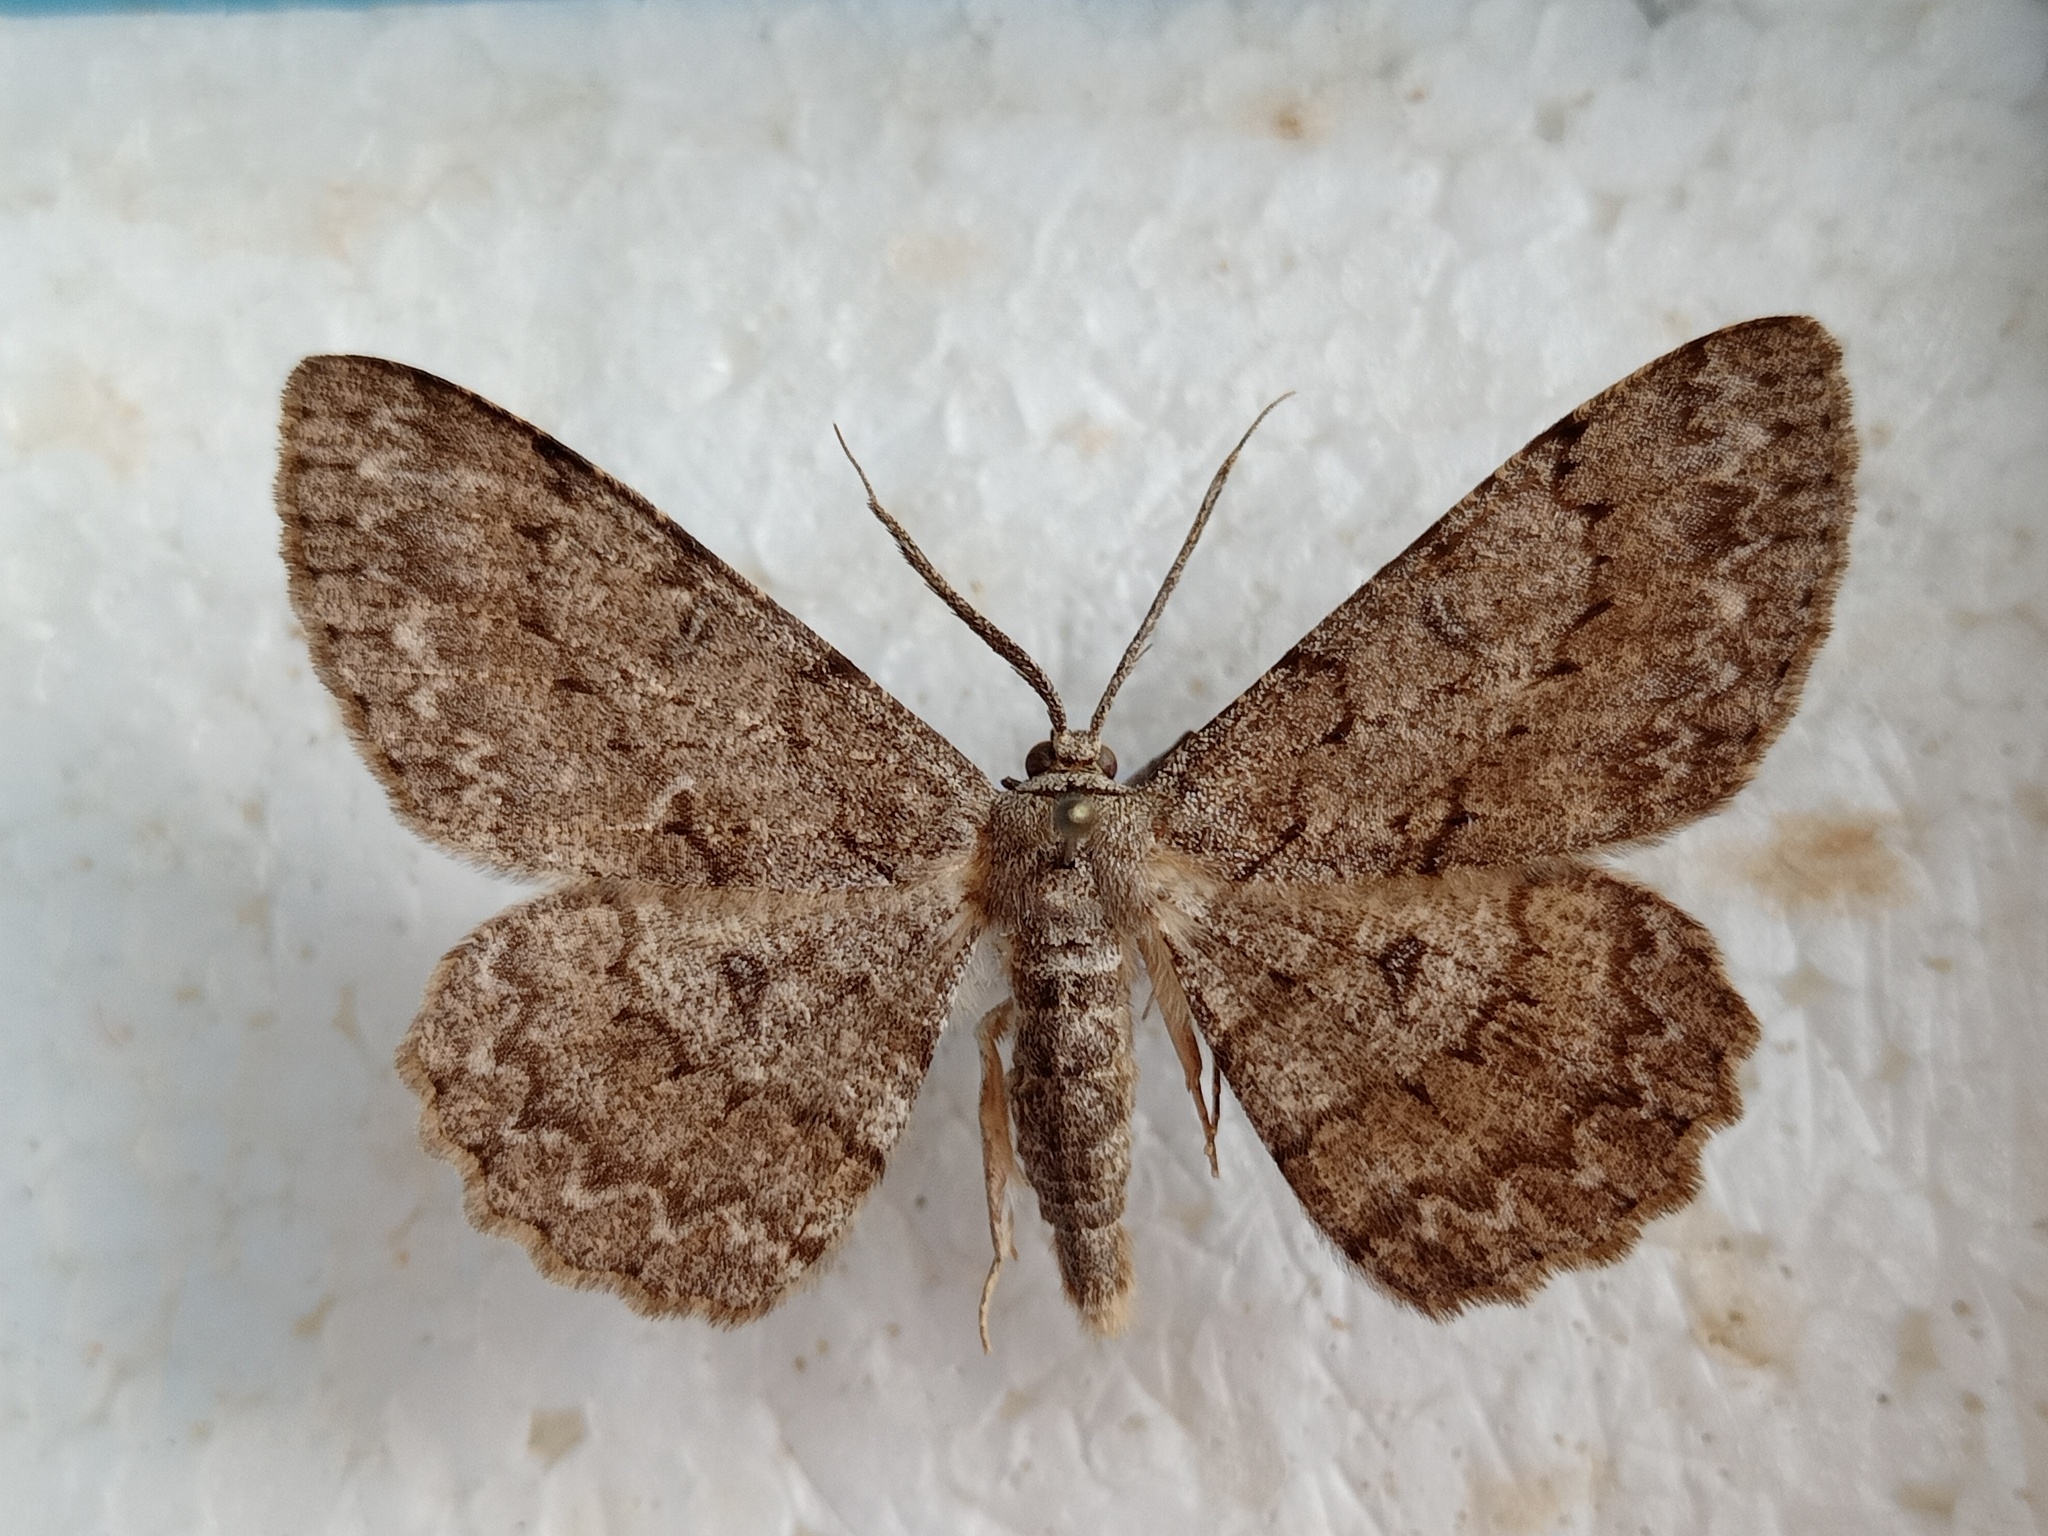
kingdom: Animalia
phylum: Arthropoda
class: Insecta
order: Lepidoptera
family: Geometridae
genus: Hypomecis
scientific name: Hypomecis punctinalis
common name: Pale oak beauty
